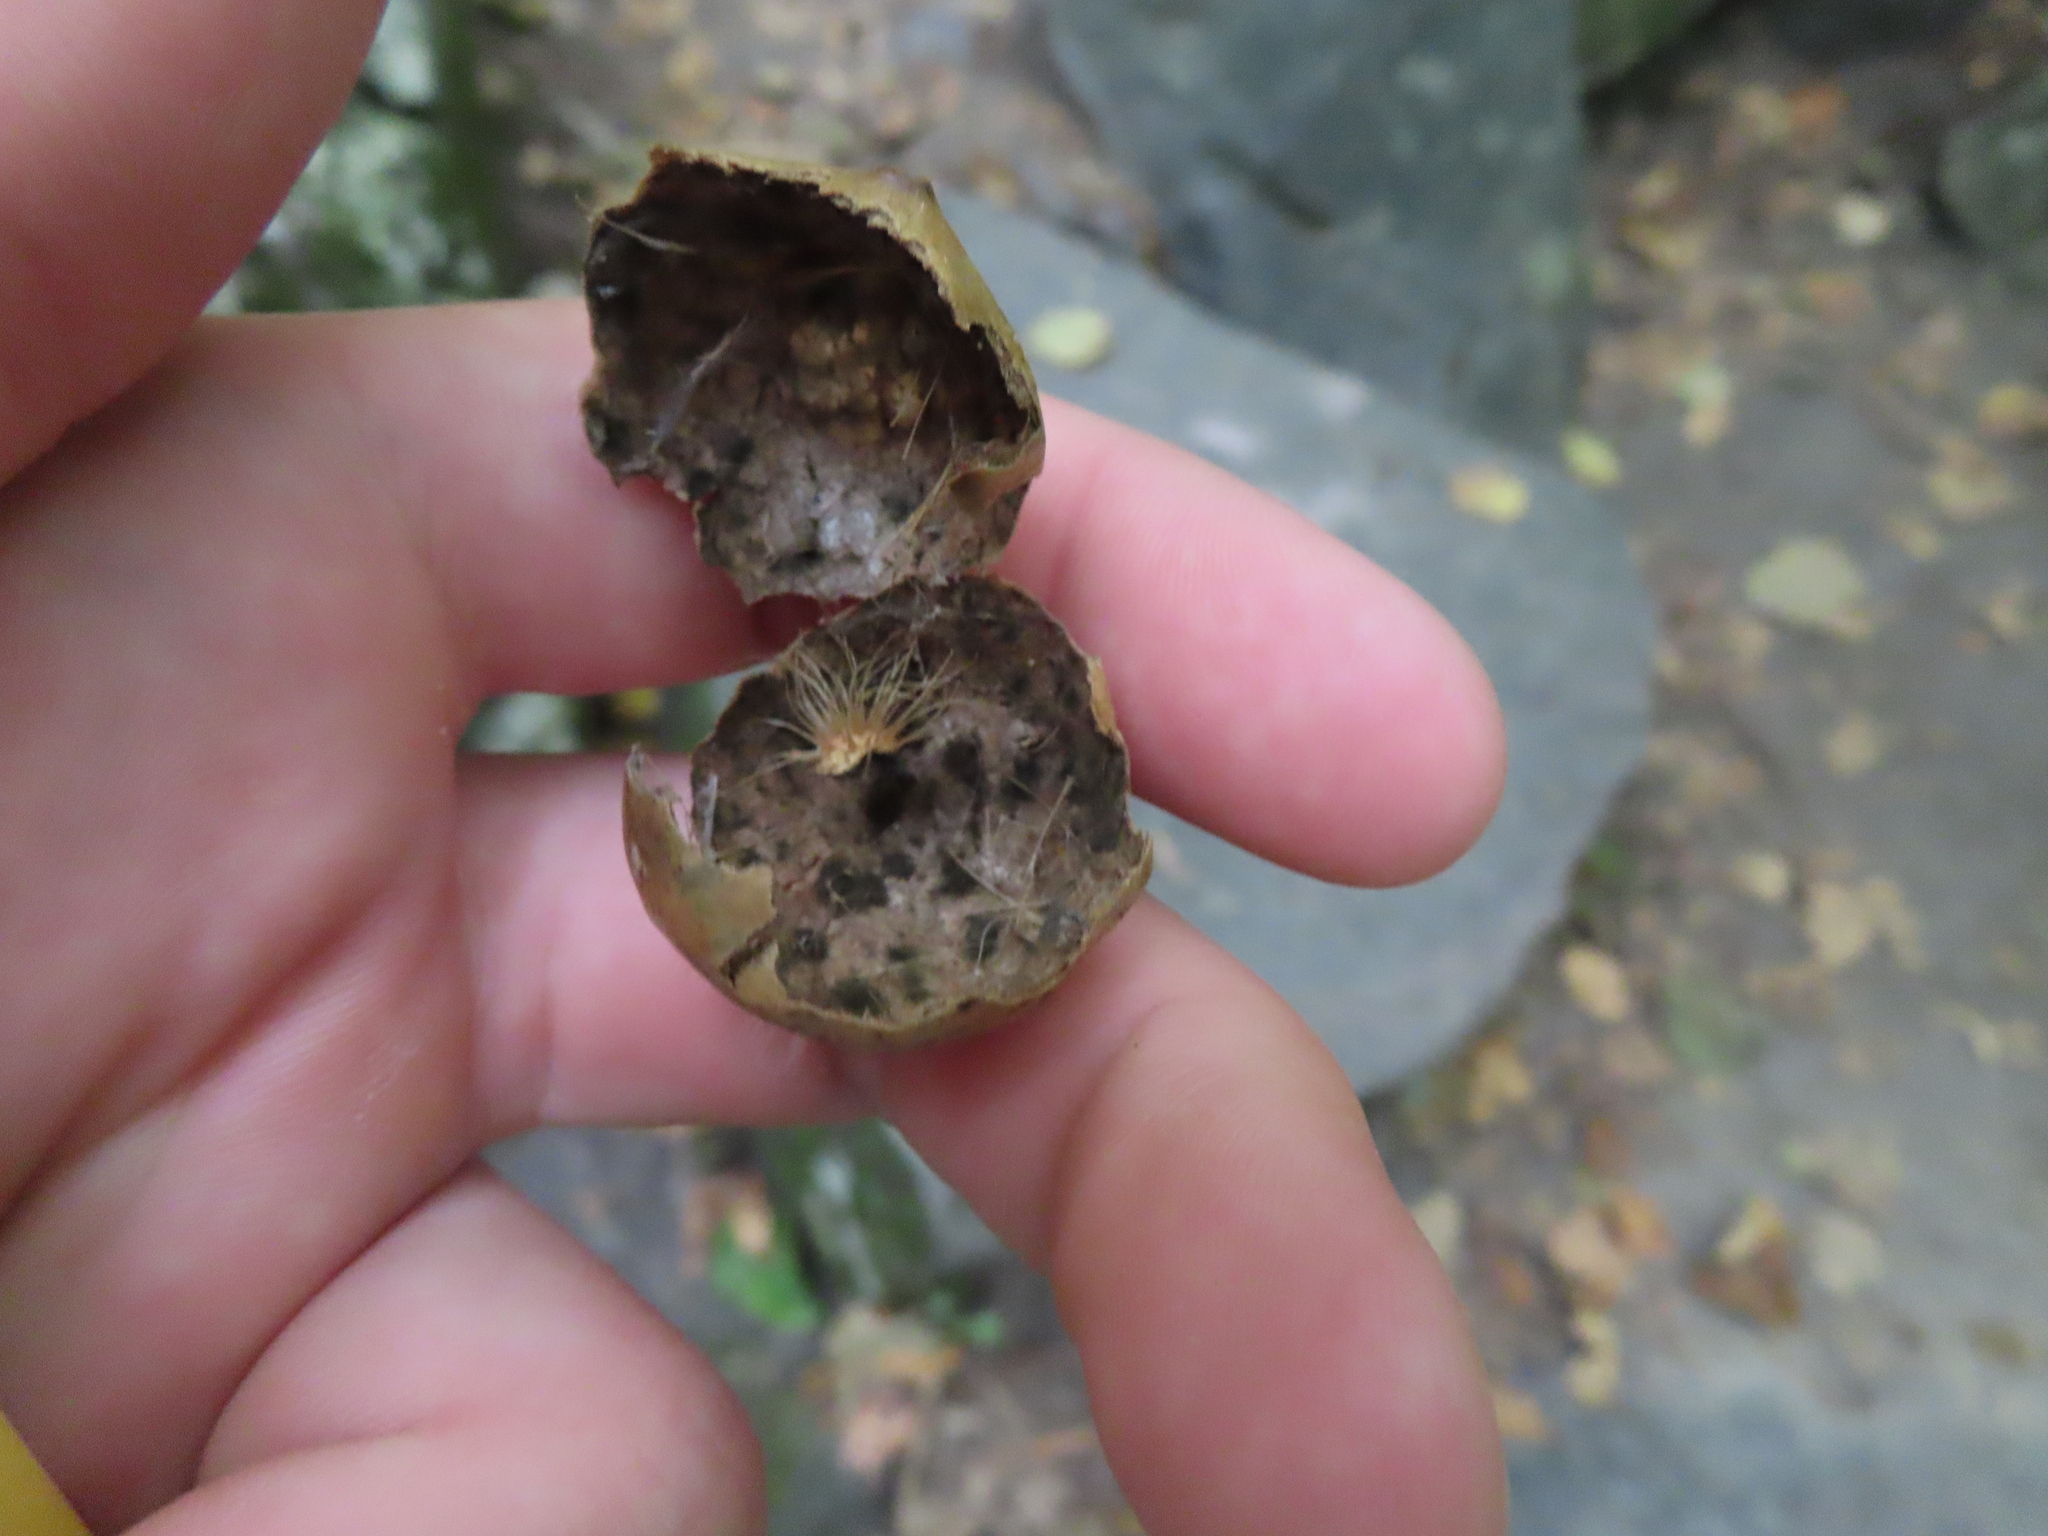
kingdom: Animalia
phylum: Arthropoda
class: Insecta
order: Hymenoptera
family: Cynipidae
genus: Amphibolips
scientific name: Amphibolips
